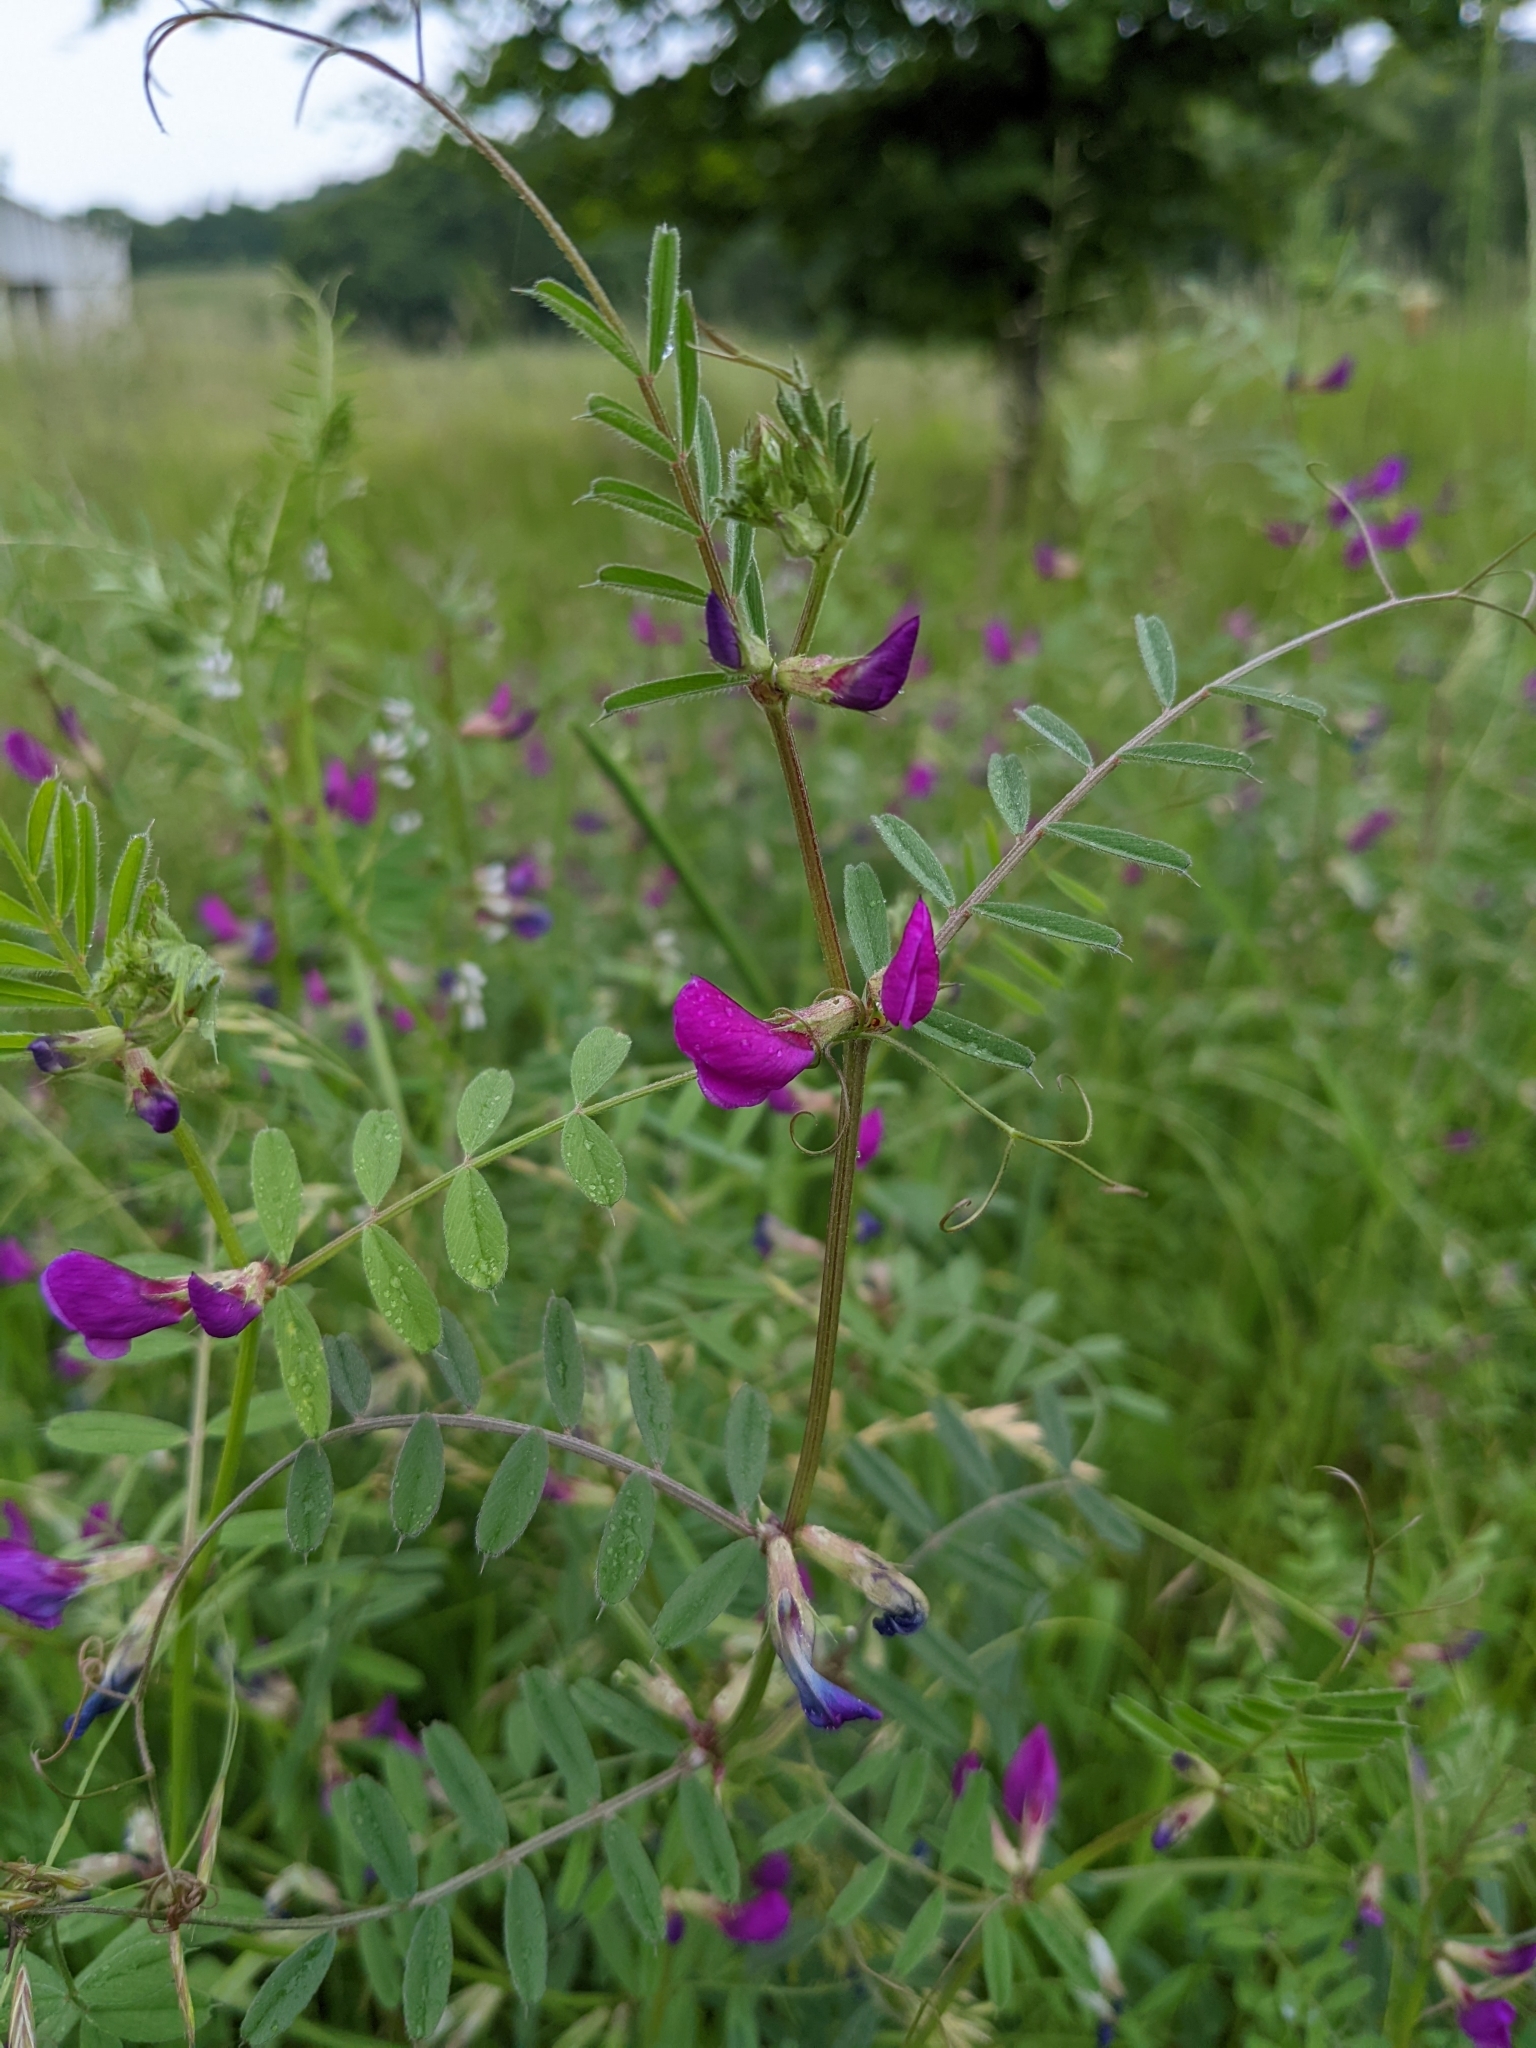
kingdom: Plantae
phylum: Tracheophyta
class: Magnoliopsida
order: Fabales
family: Fabaceae
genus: Vicia
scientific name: Vicia sativa
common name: Garden vetch
